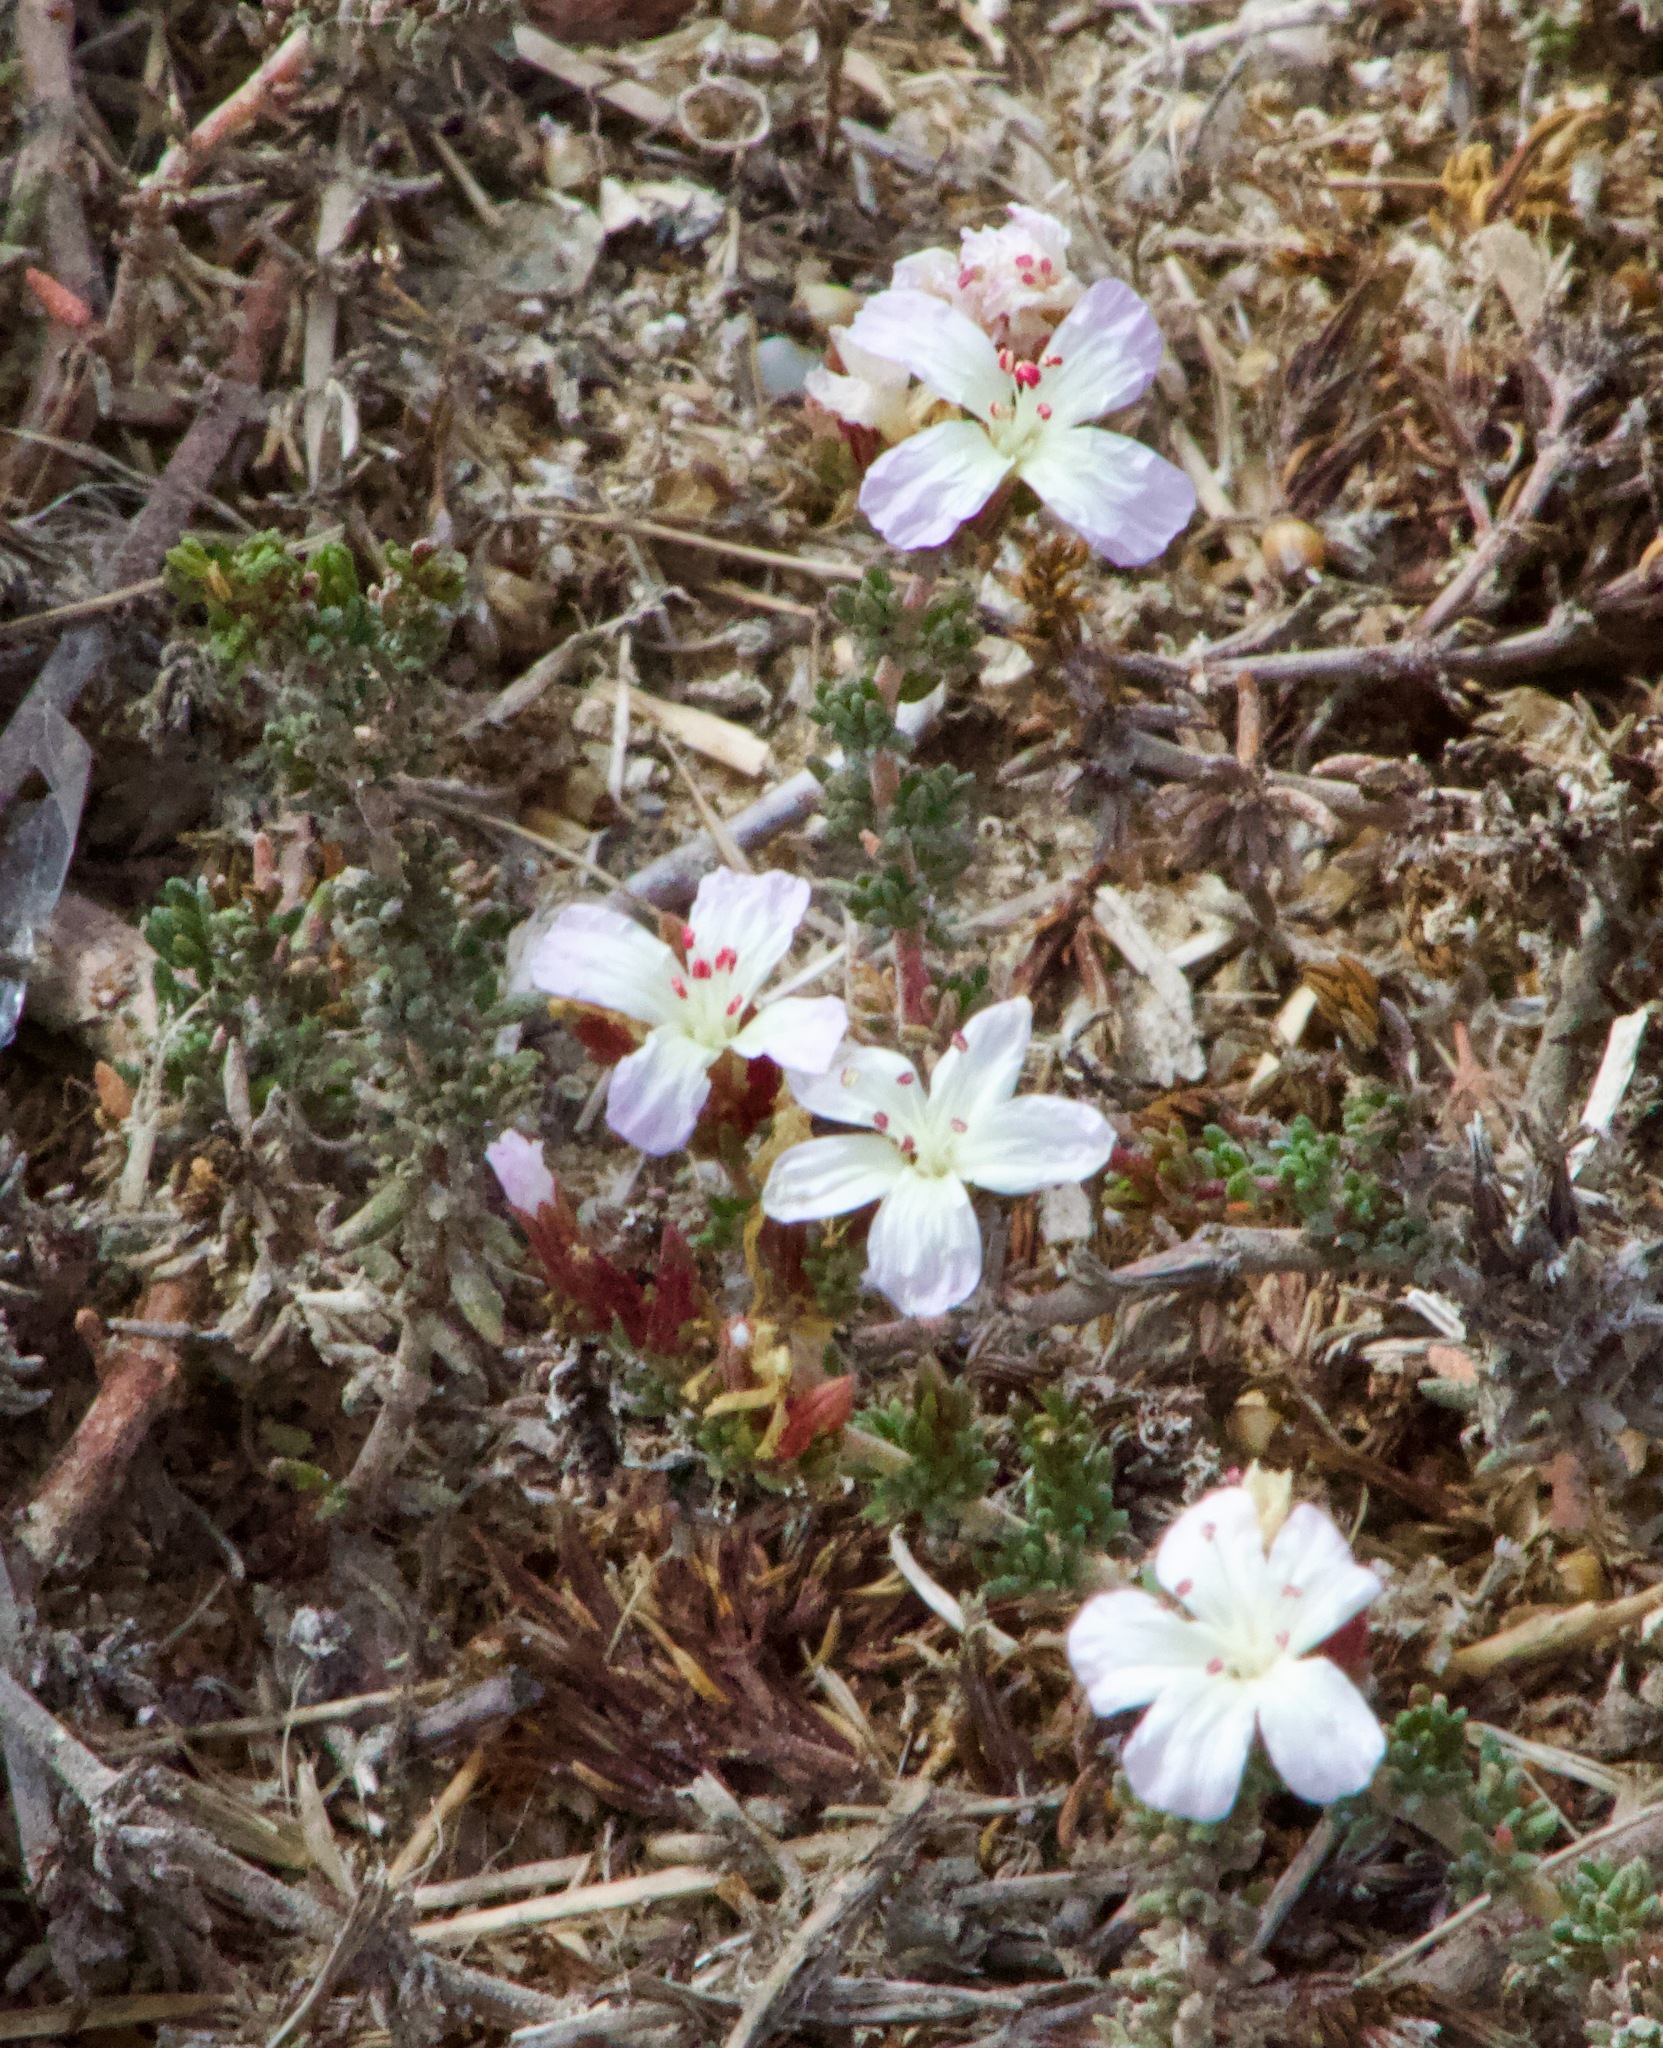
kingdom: Plantae
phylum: Tracheophyta
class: Magnoliopsida
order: Caryophyllales
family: Frankeniaceae
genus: Frankenia
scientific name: Frankenia chilensis
